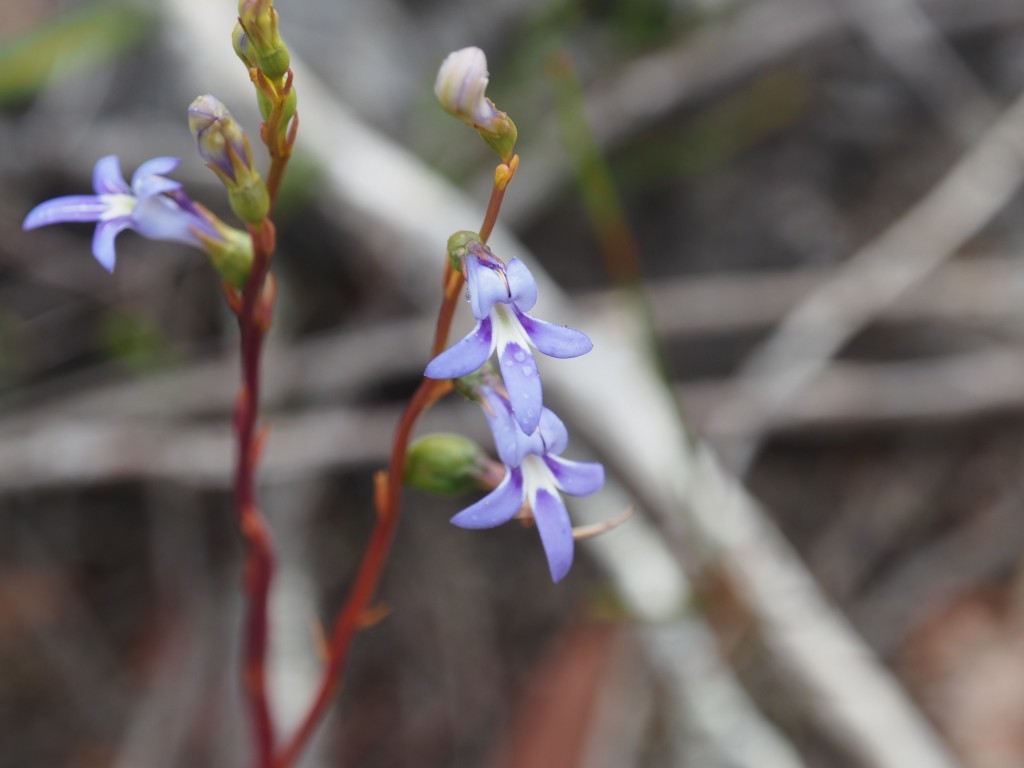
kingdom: Plantae
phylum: Tracheophyta
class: Magnoliopsida
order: Asterales
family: Campanulaceae
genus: Lobelia
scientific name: Lobelia rhombifolia
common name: Tufted lobelia
